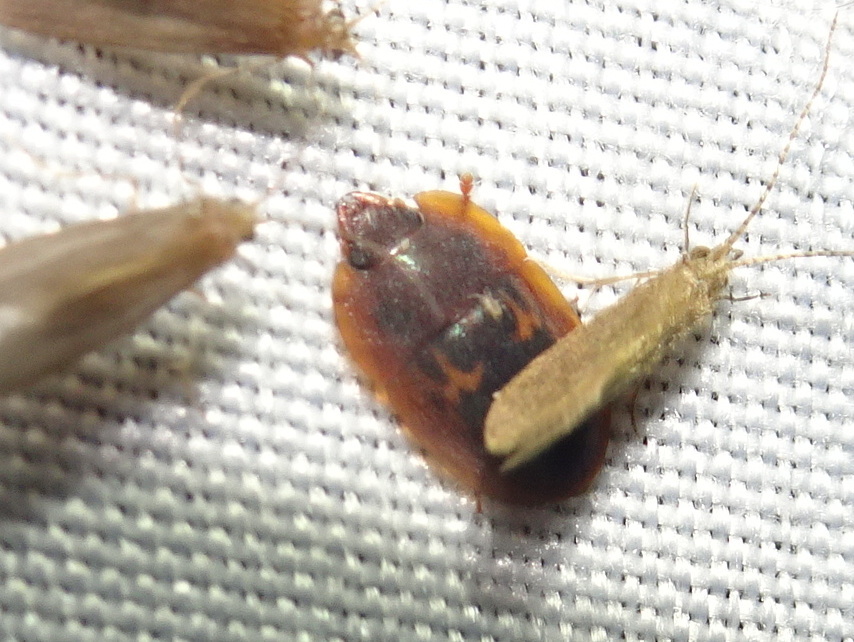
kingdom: Animalia
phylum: Arthropoda
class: Insecta
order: Coleoptera
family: Nitidulidae
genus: Prometopia
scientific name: Prometopia sexmaculata
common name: Six-spotted sap-feeding beetle
